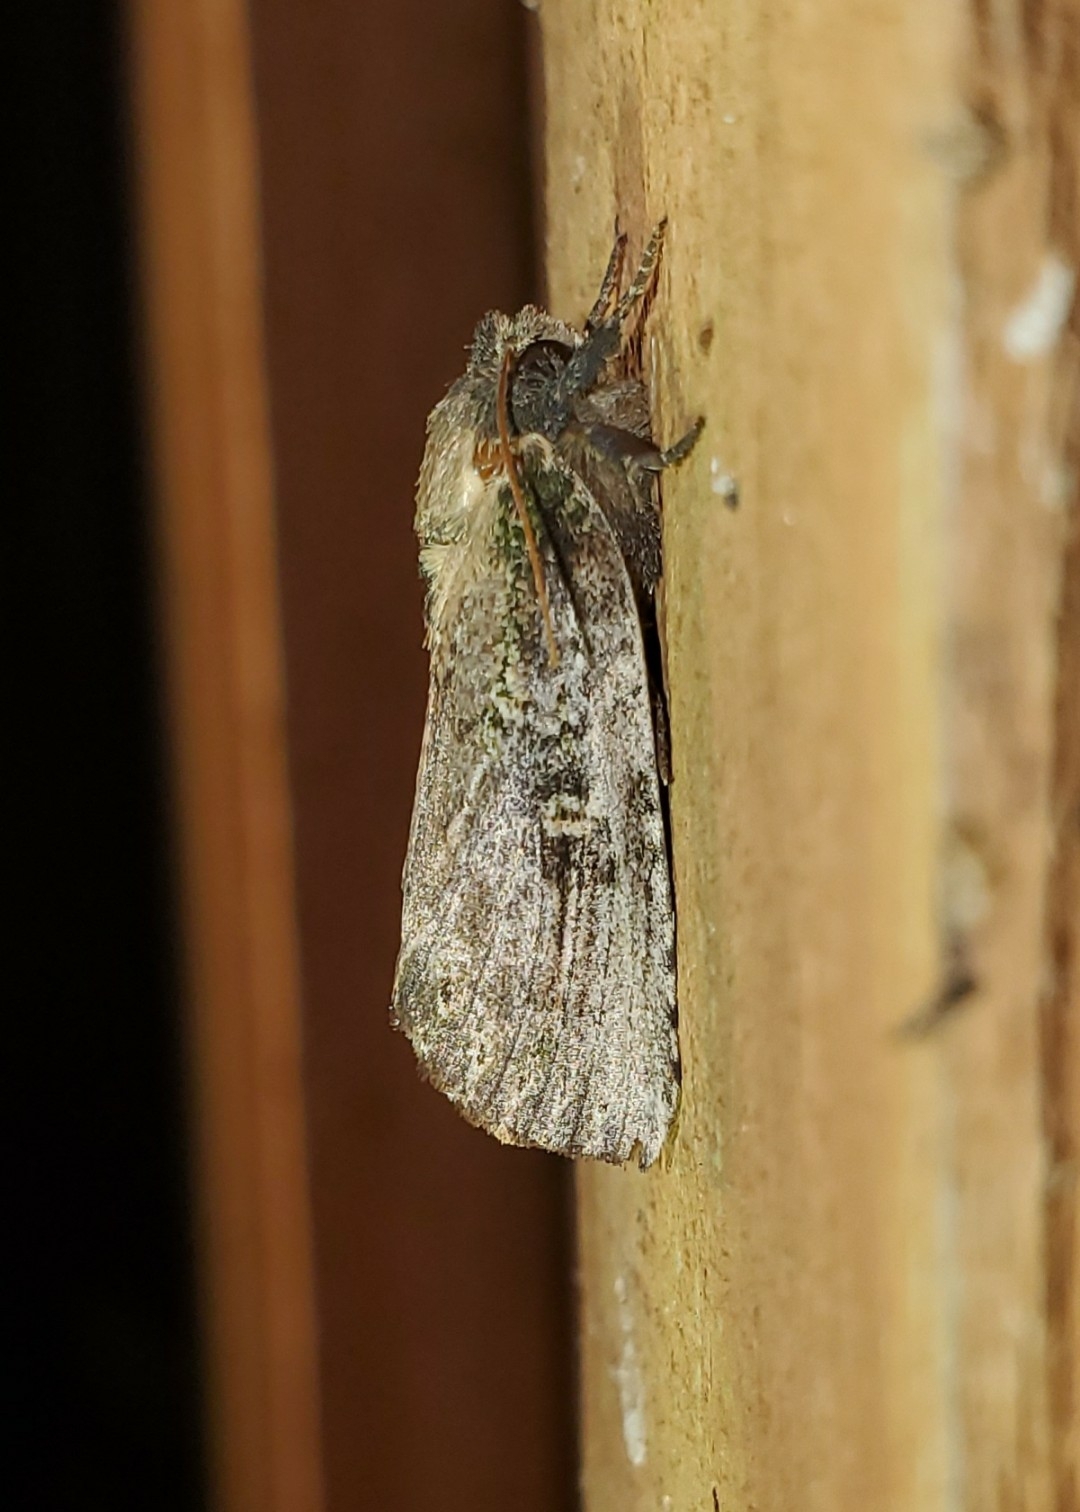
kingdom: Animalia
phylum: Arthropoda
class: Insecta
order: Lepidoptera
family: Notodontidae
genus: Schizura
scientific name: Schizura ipomaeae
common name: Morning-glory prominent
